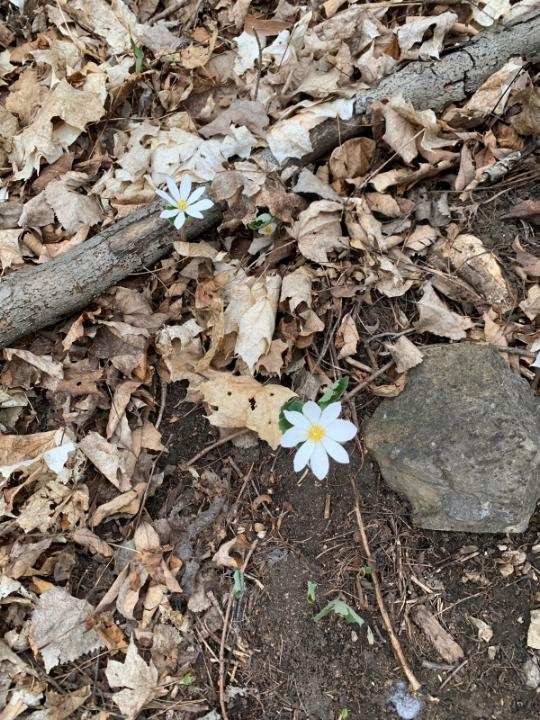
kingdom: Plantae
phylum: Tracheophyta
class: Magnoliopsida
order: Ranunculales
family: Papaveraceae
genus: Sanguinaria
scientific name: Sanguinaria canadensis
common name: Bloodroot
